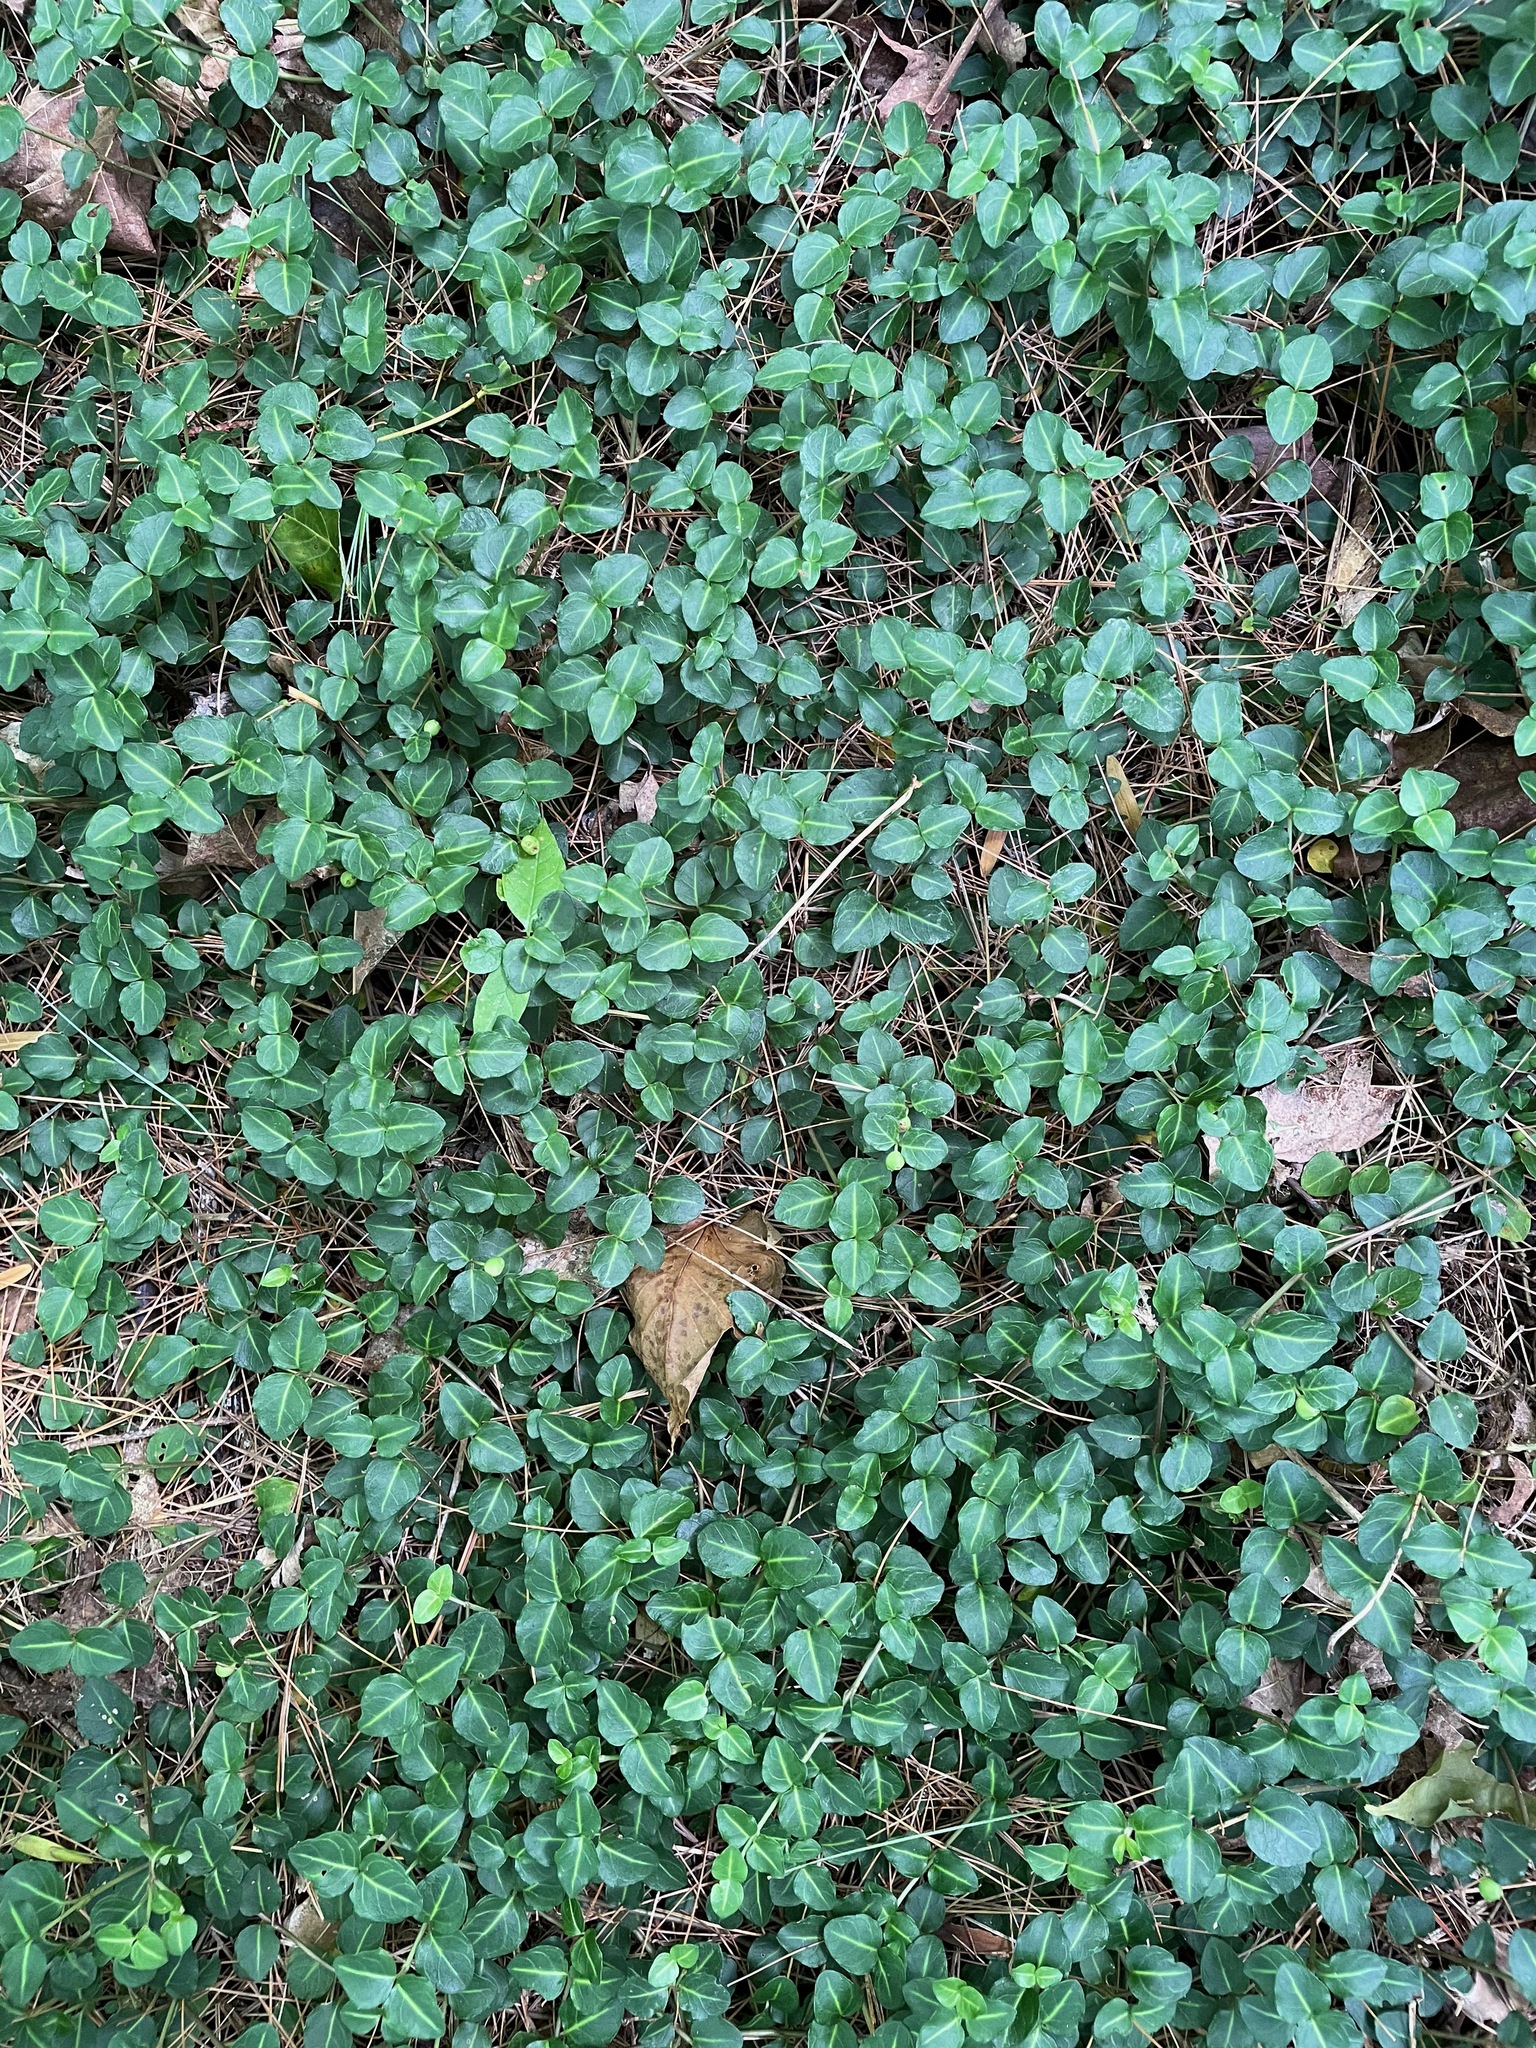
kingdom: Plantae
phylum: Tracheophyta
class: Magnoliopsida
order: Gentianales
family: Rubiaceae
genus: Mitchella
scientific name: Mitchella repens
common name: Partridge-berry
